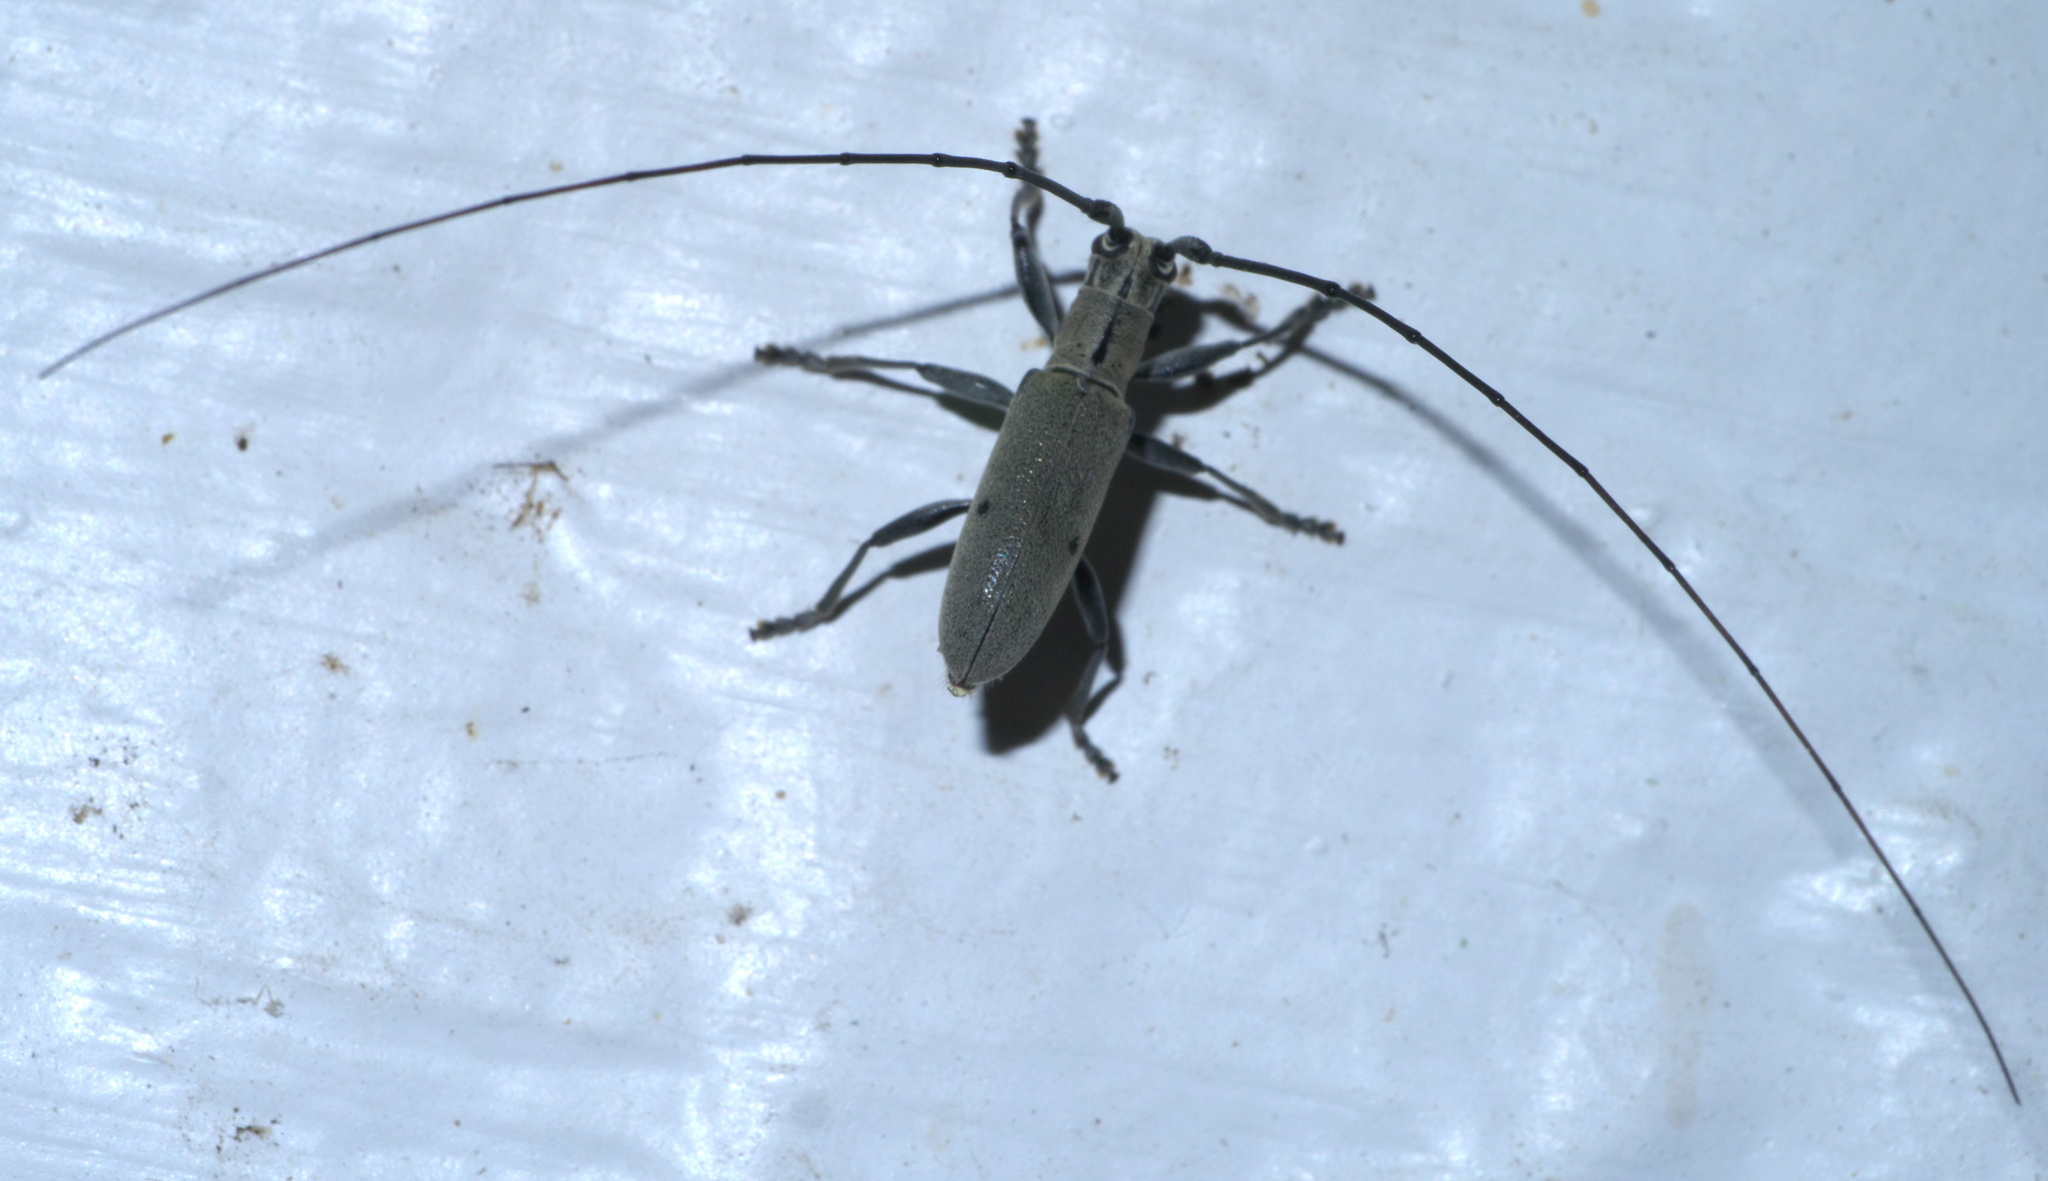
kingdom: Animalia
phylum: Arthropoda
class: Insecta
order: Coleoptera
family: Cerambycidae
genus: Dorcaschema
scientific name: Dorcaschema cinereum
